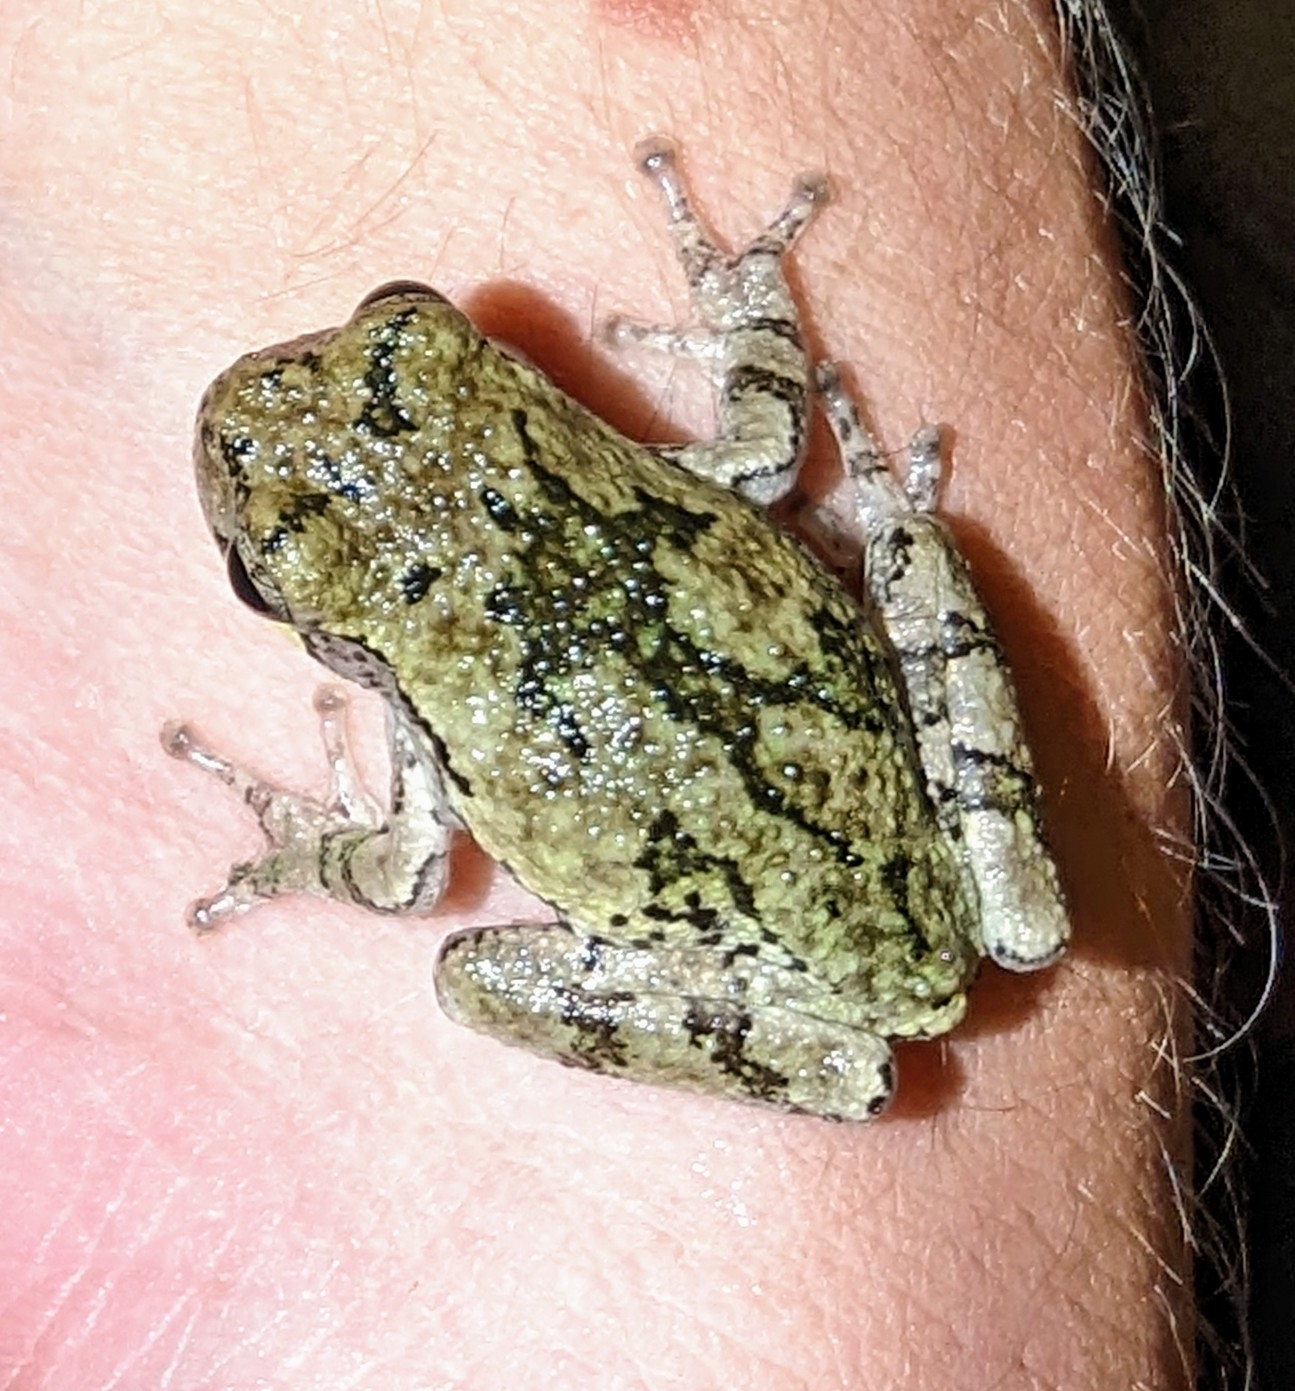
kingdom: Animalia
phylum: Chordata
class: Amphibia
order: Anura
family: Hylidae
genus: Hyla
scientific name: Hyla
